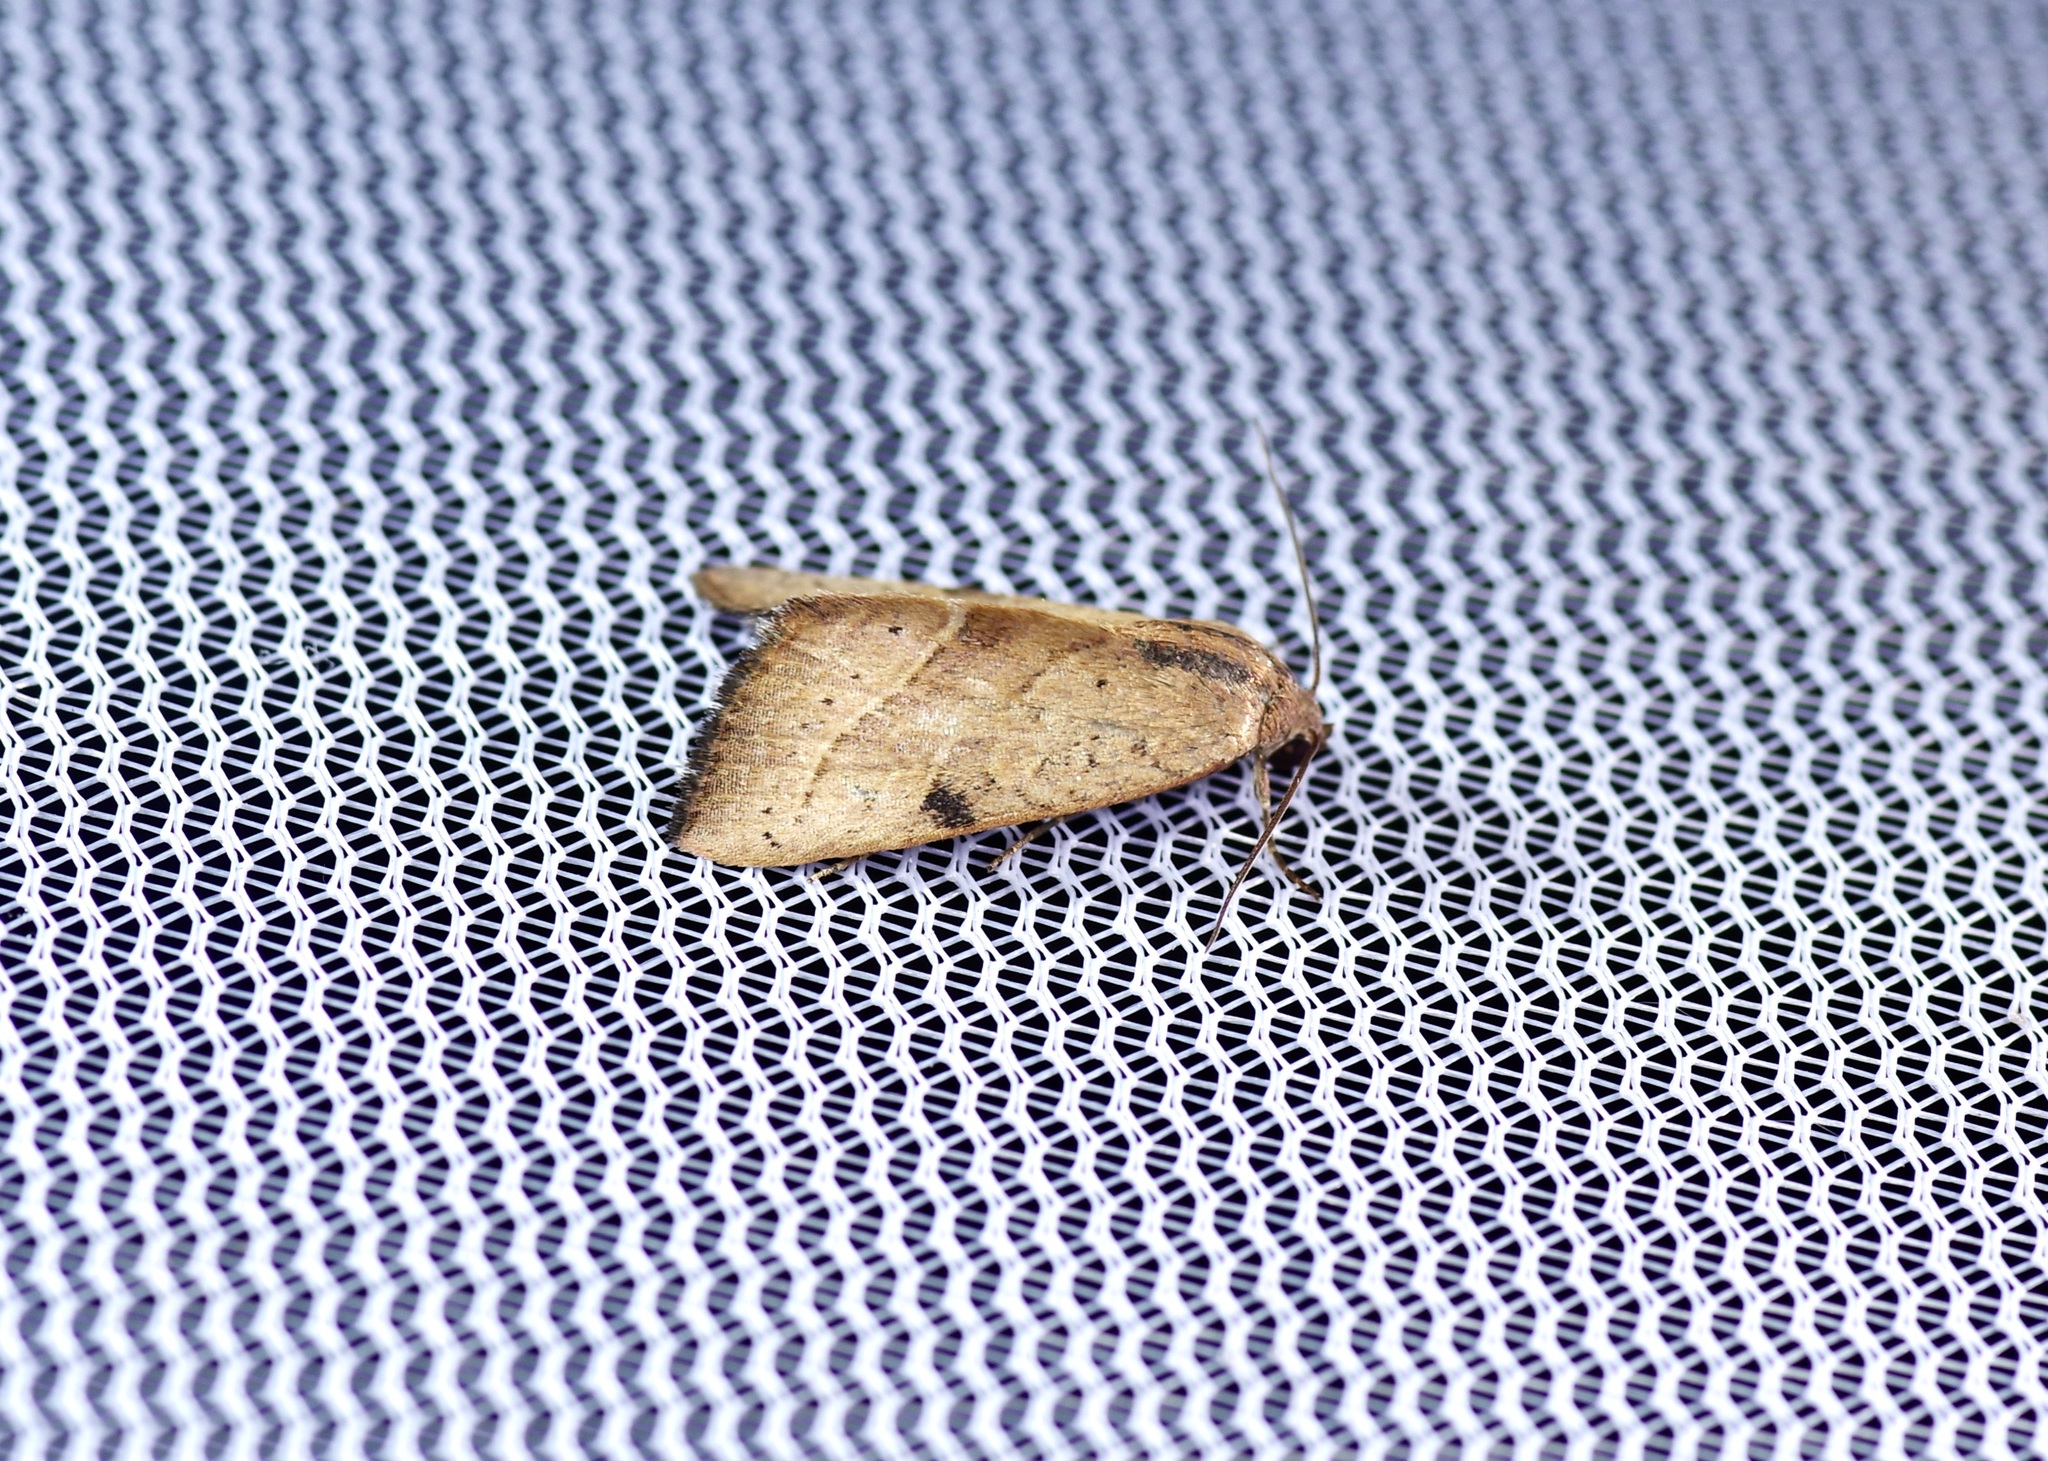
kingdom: Animalia
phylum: Arthropoda
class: Insecta
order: Lepidoptera
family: Noctuidae
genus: Galgula
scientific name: Galgula partita
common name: Wedgeling
